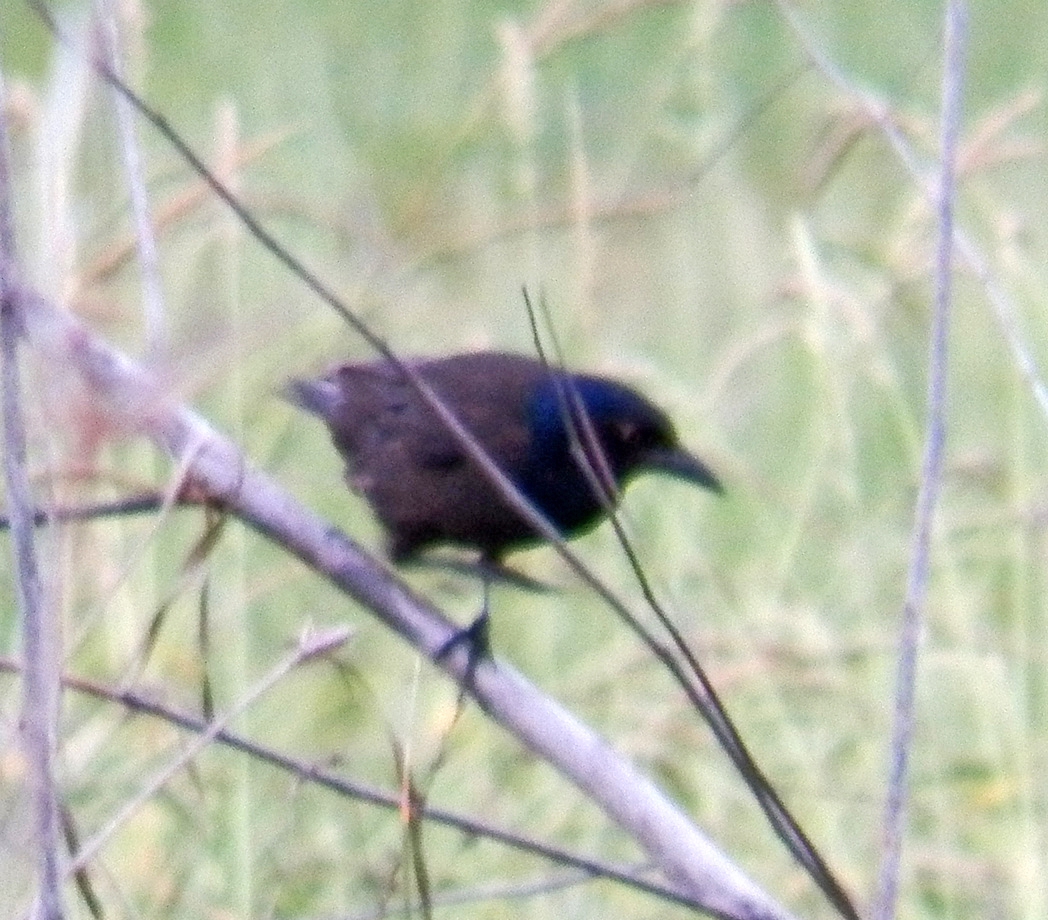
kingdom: Animalia
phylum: Chordata
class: Aves
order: Passeriformes
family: Icteridae
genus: Quiscalus
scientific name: Quiscalus quiscula
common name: Common grackle
